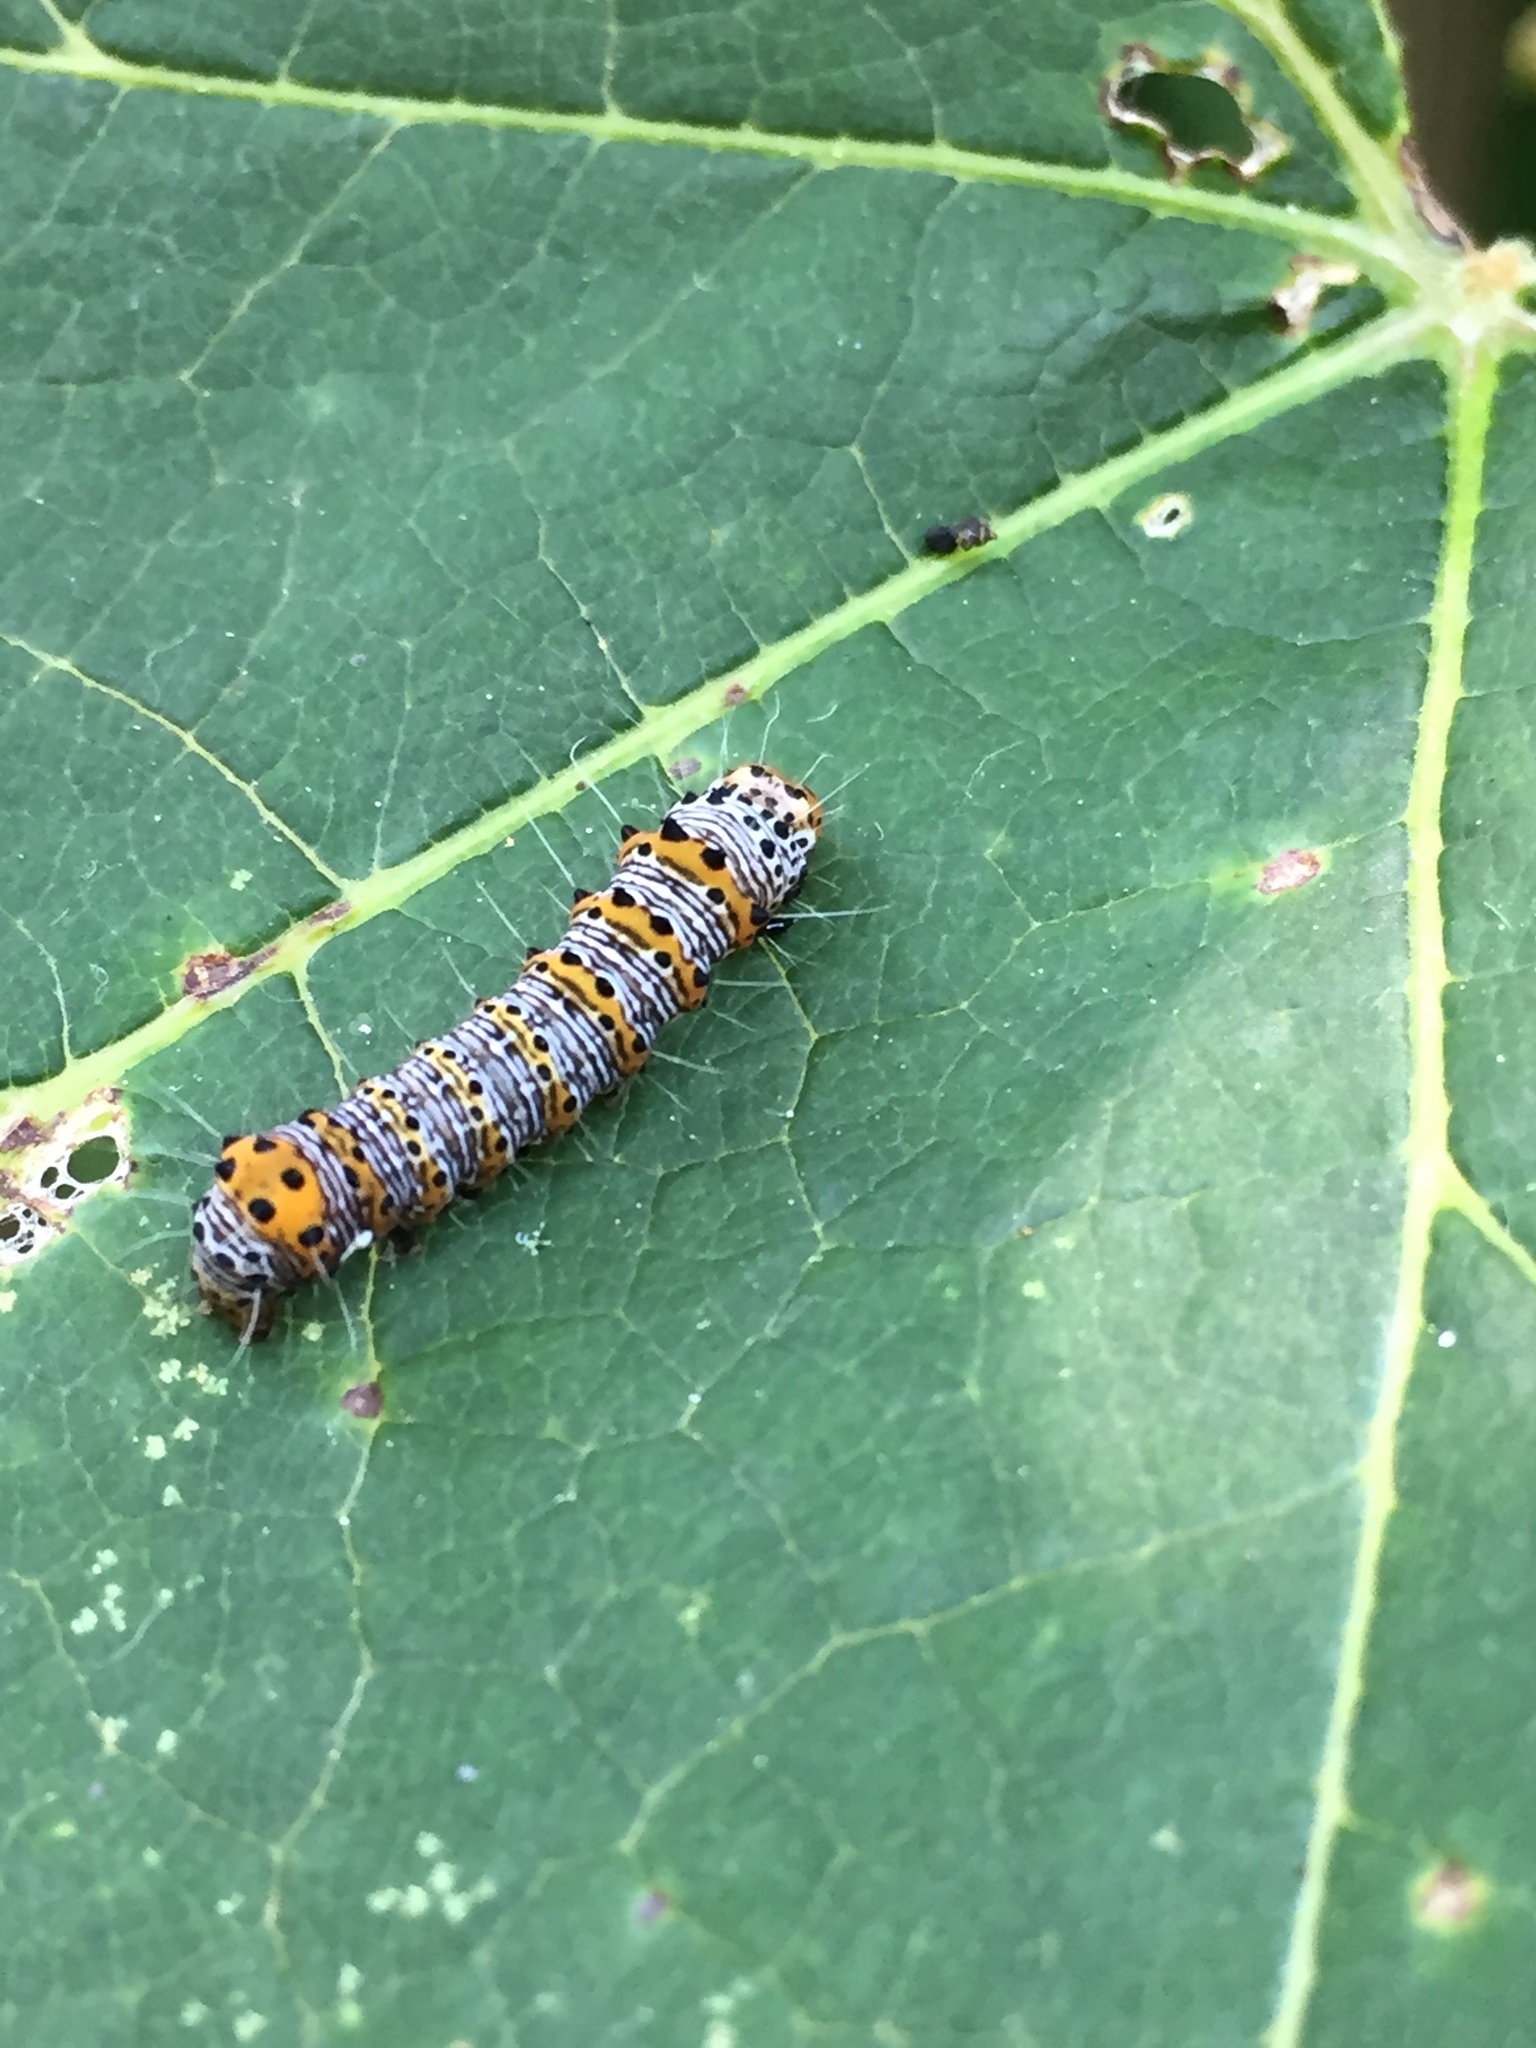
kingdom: Animalia
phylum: Arthropoda
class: Insecta
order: Lepidoptera
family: Noctuidae
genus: Alypia
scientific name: Alypia octomaculata
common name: Eight-spotted forester
